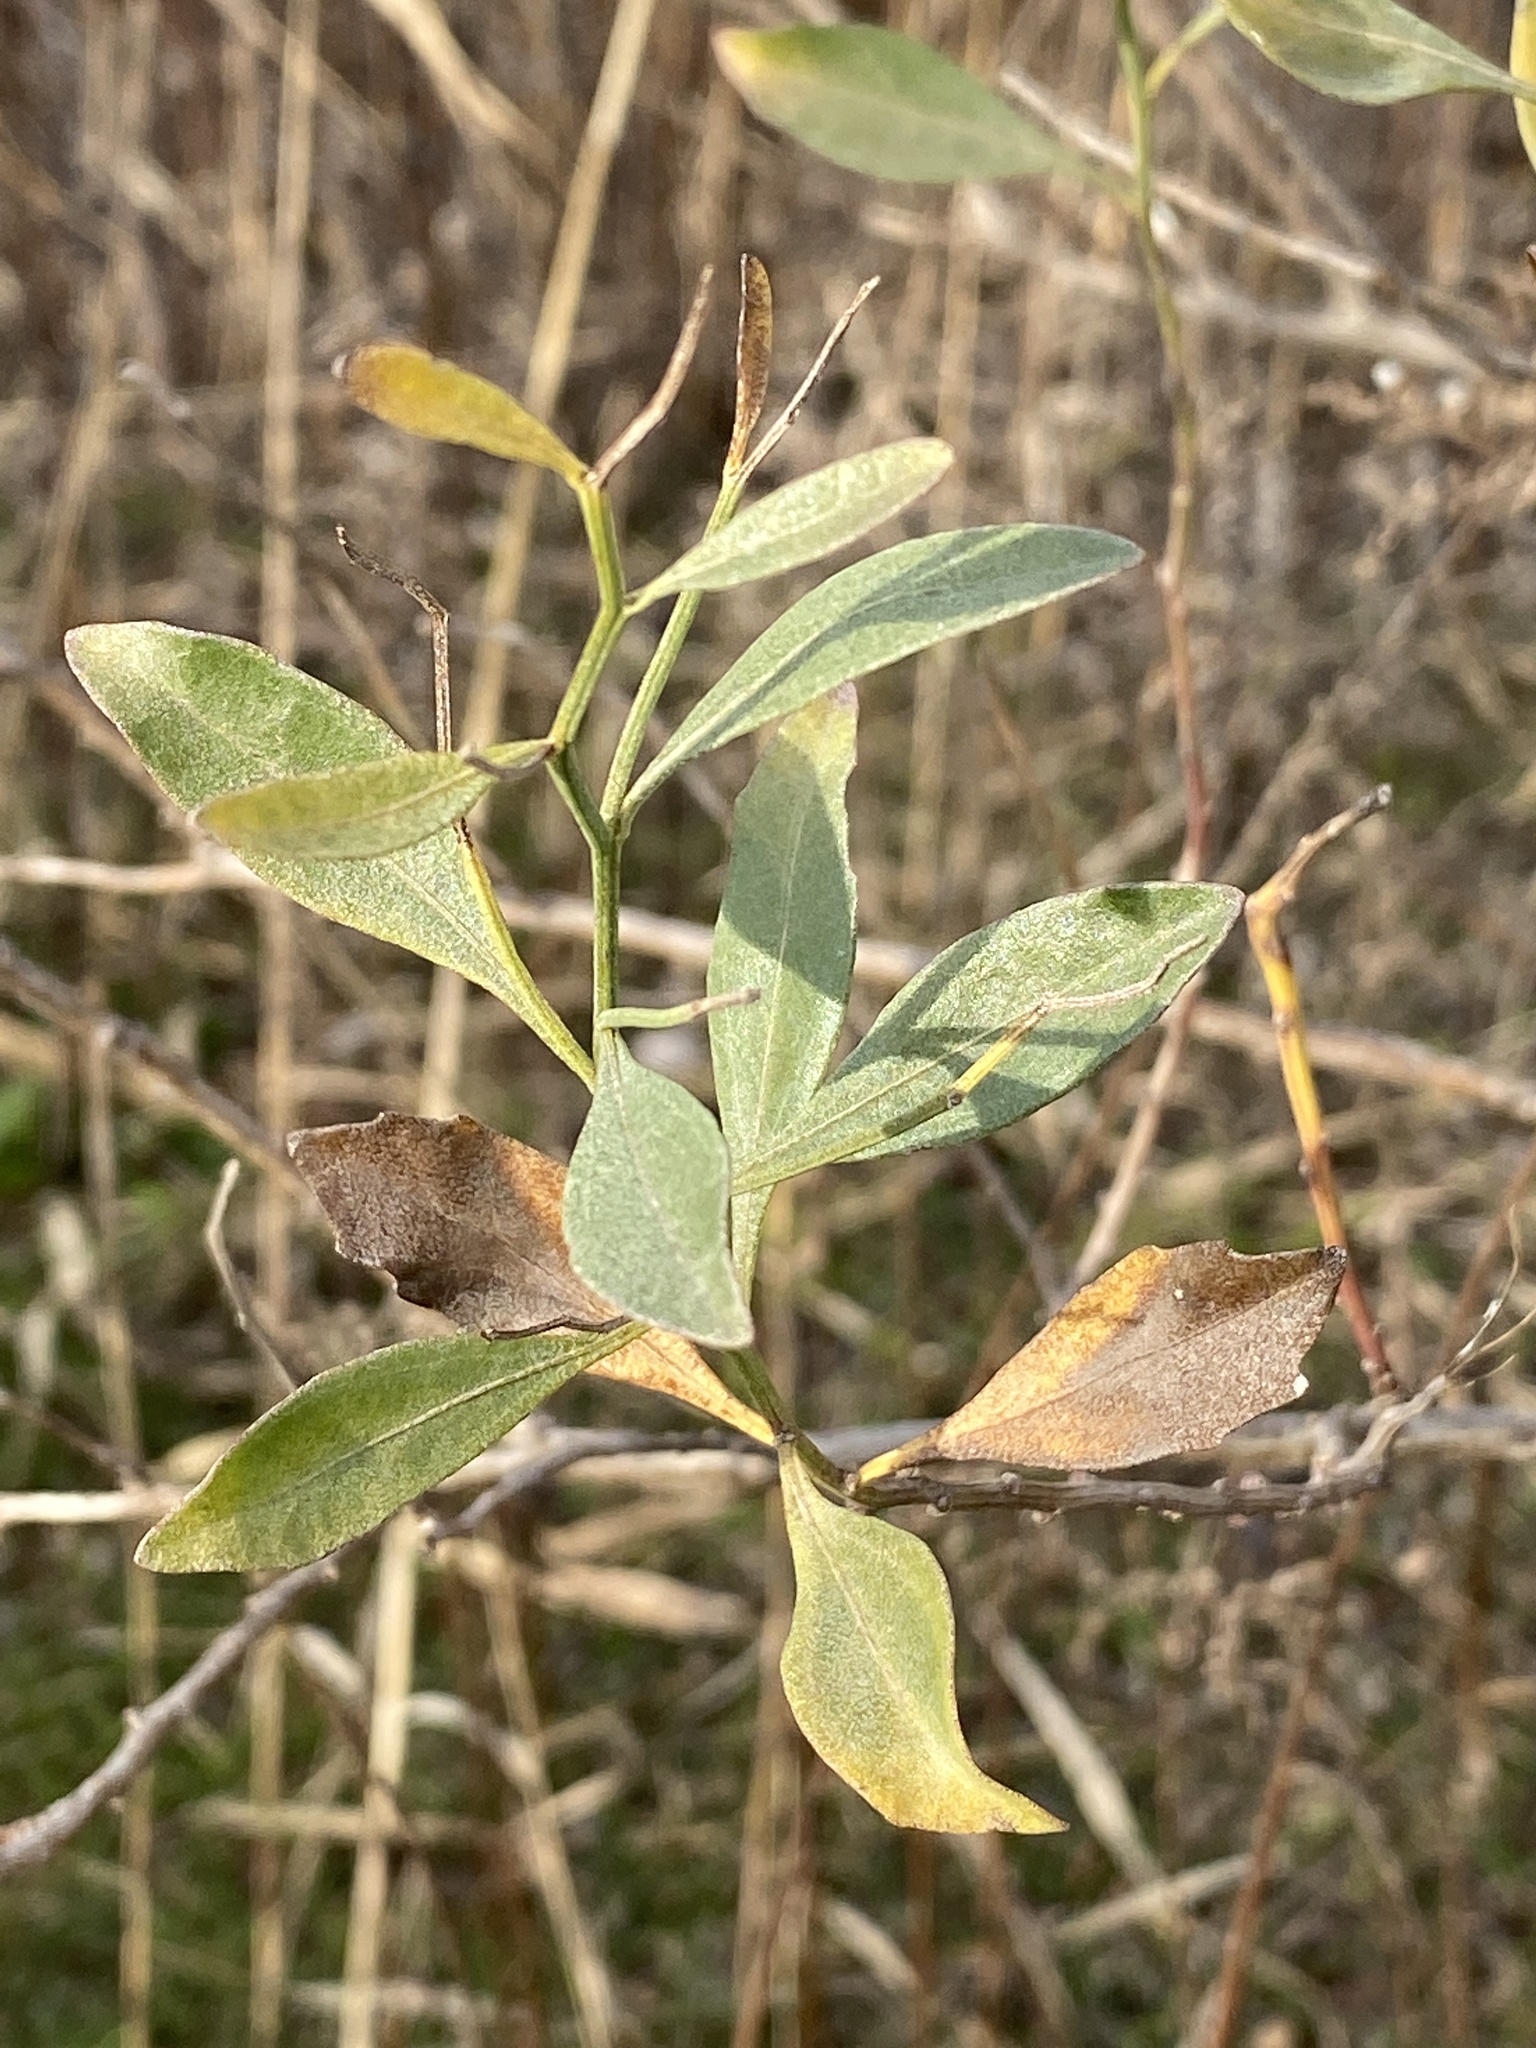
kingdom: Plantae
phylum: Tracheophyta
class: Magnoliopsida
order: Asterales
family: Asteraceae
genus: Baccharis
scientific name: Baccharis halimifolia
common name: Eastern baccharis
